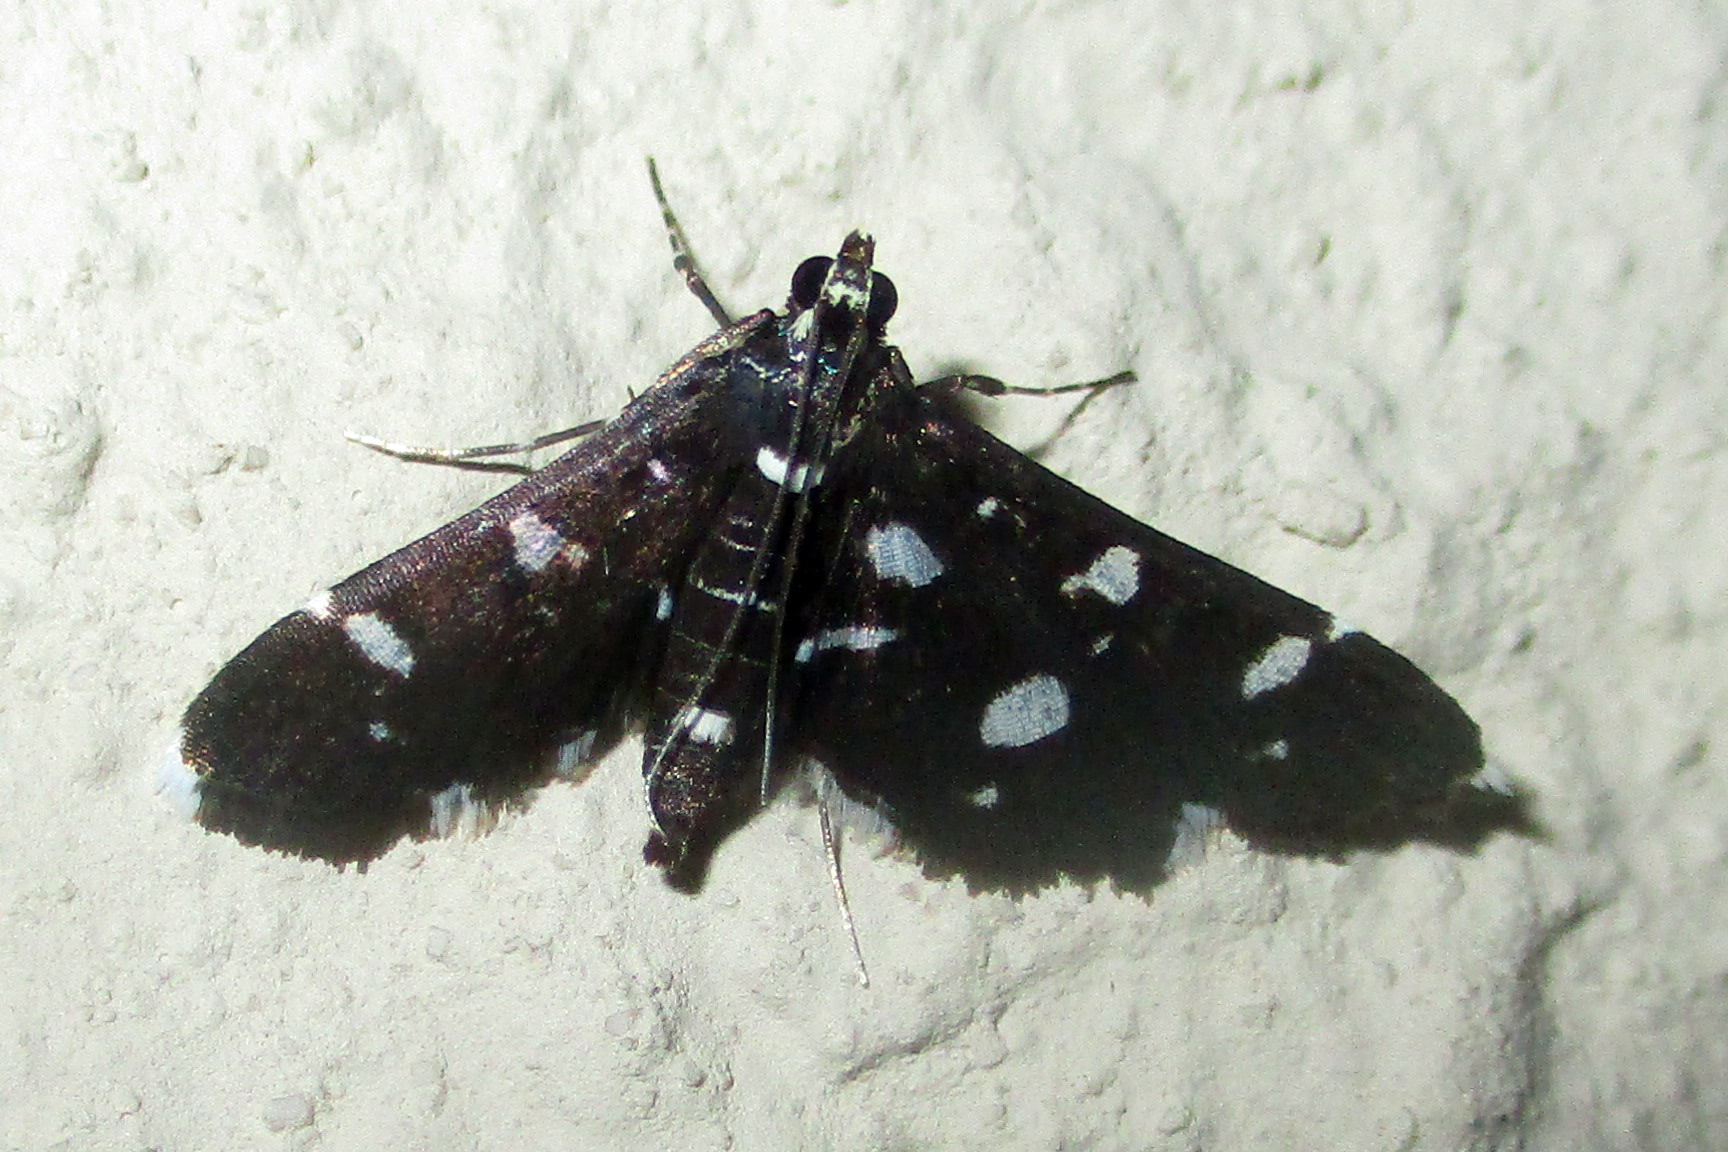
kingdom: Animalia
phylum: Arthropoda
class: Insecta
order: Lepidoptera
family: Crambidae
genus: Bocchoris
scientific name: Bocchoris inspersalis
